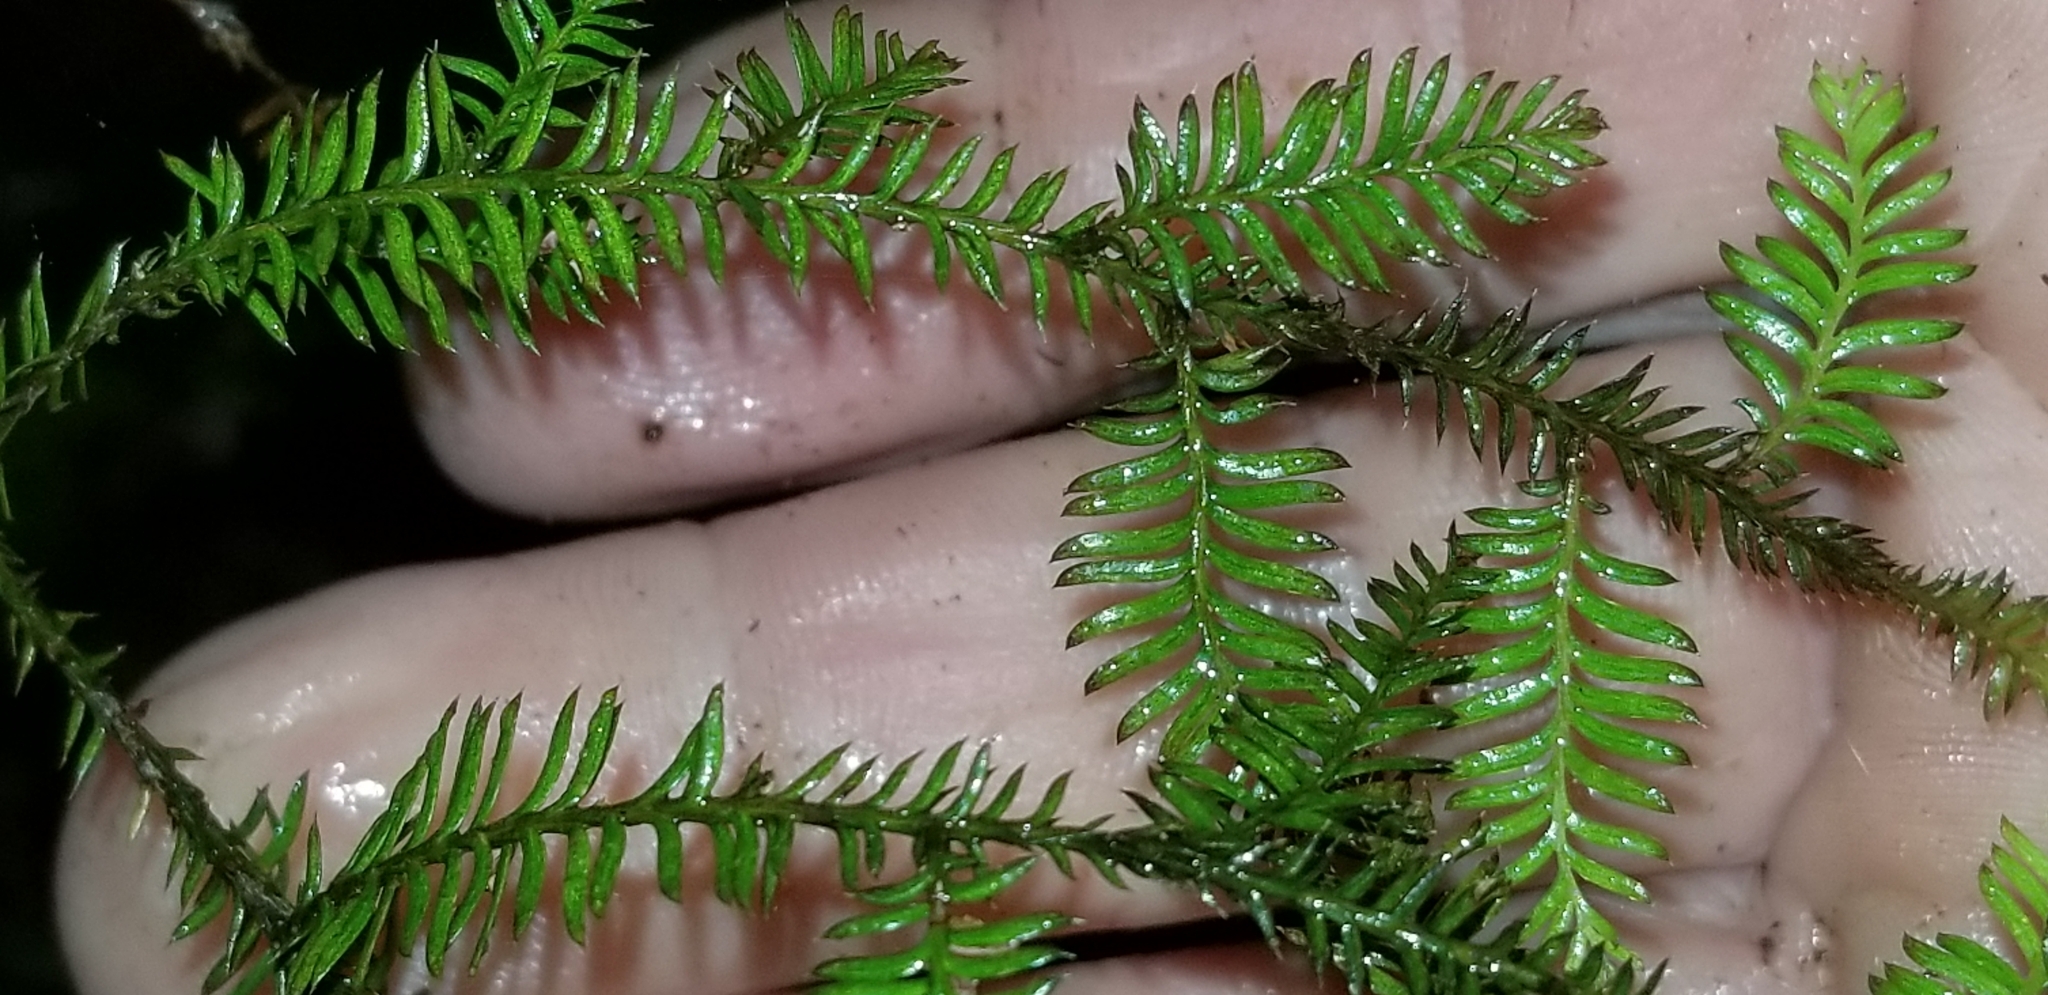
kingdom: Plantae
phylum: Tracheophyta
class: Pinopsida
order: Pinales
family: Podocarpaceae
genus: Dacrycarpus
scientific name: Dacrycarpus dacrydioides
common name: White pine
